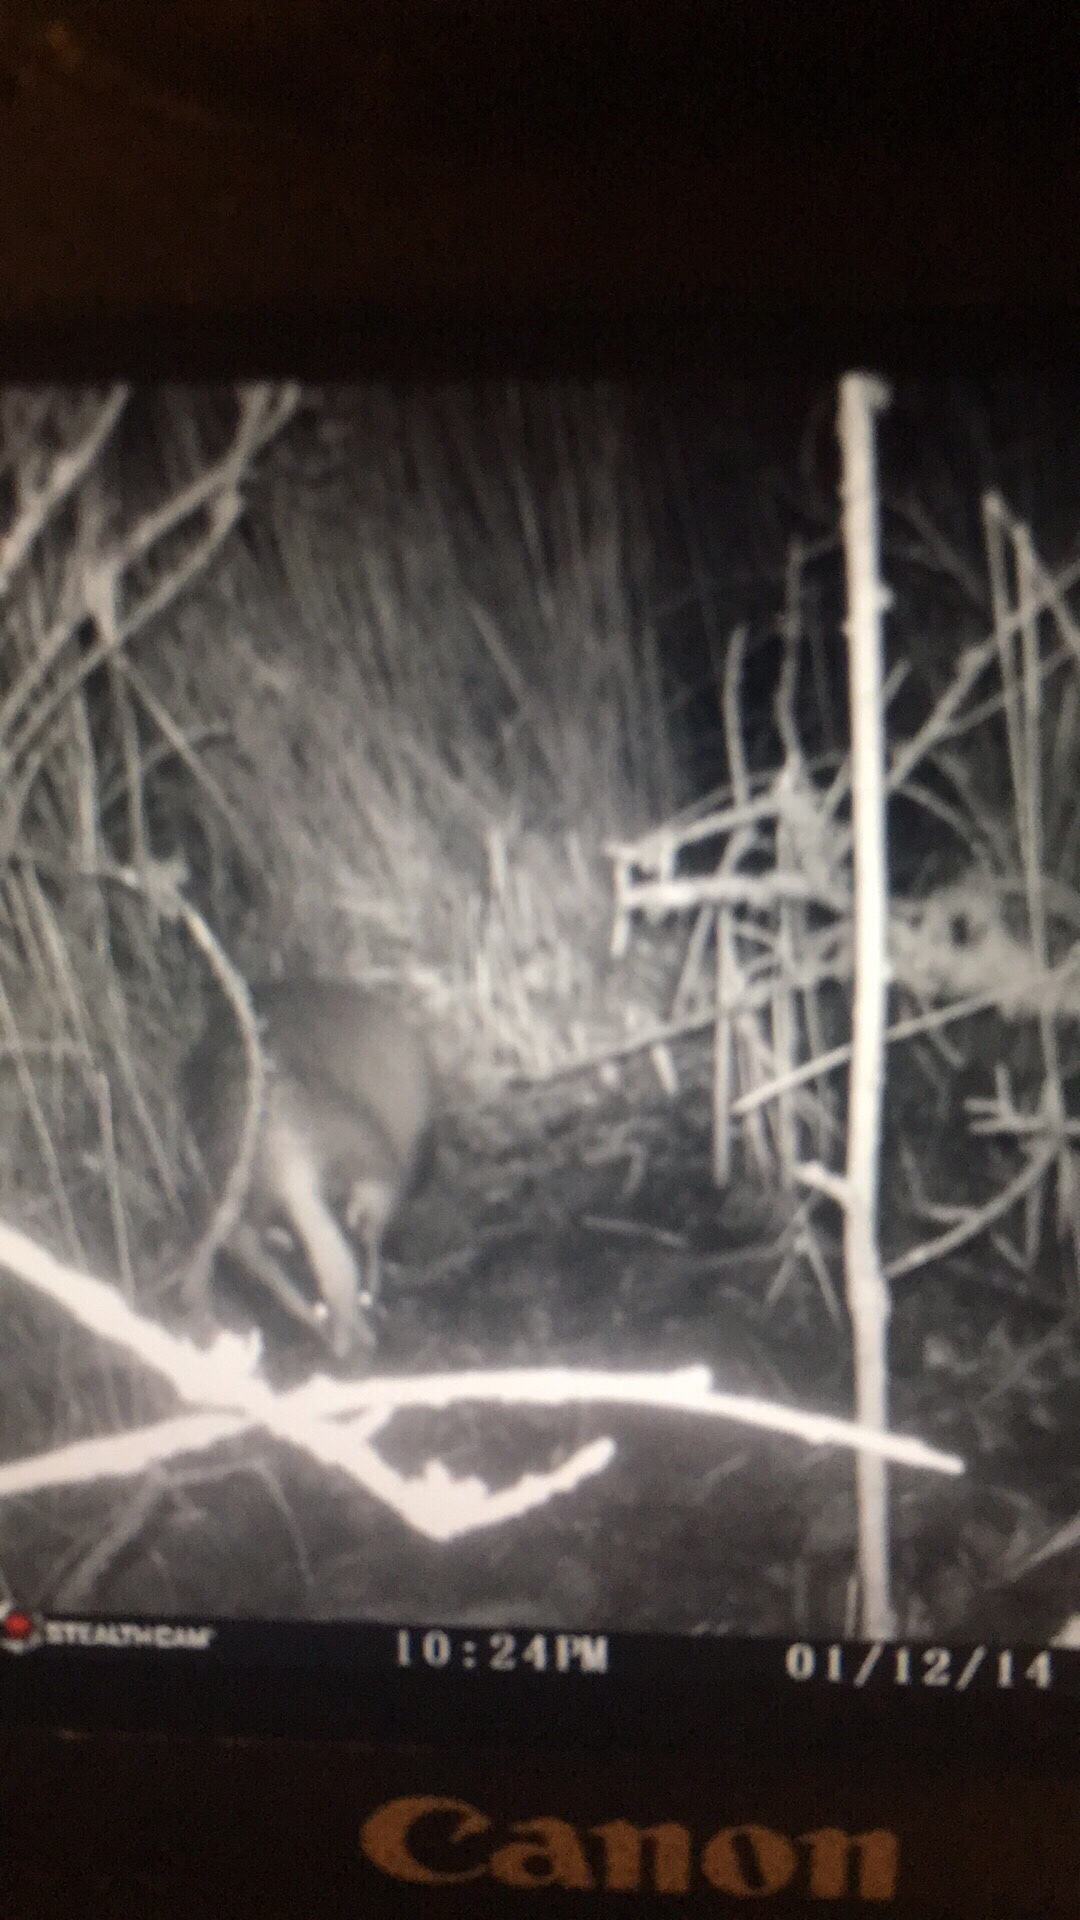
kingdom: Animalia
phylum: Chordata
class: Mammalia
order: Carnivora
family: Mustelidae
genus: Meles
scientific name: Meles meles
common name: Eurasian badger
